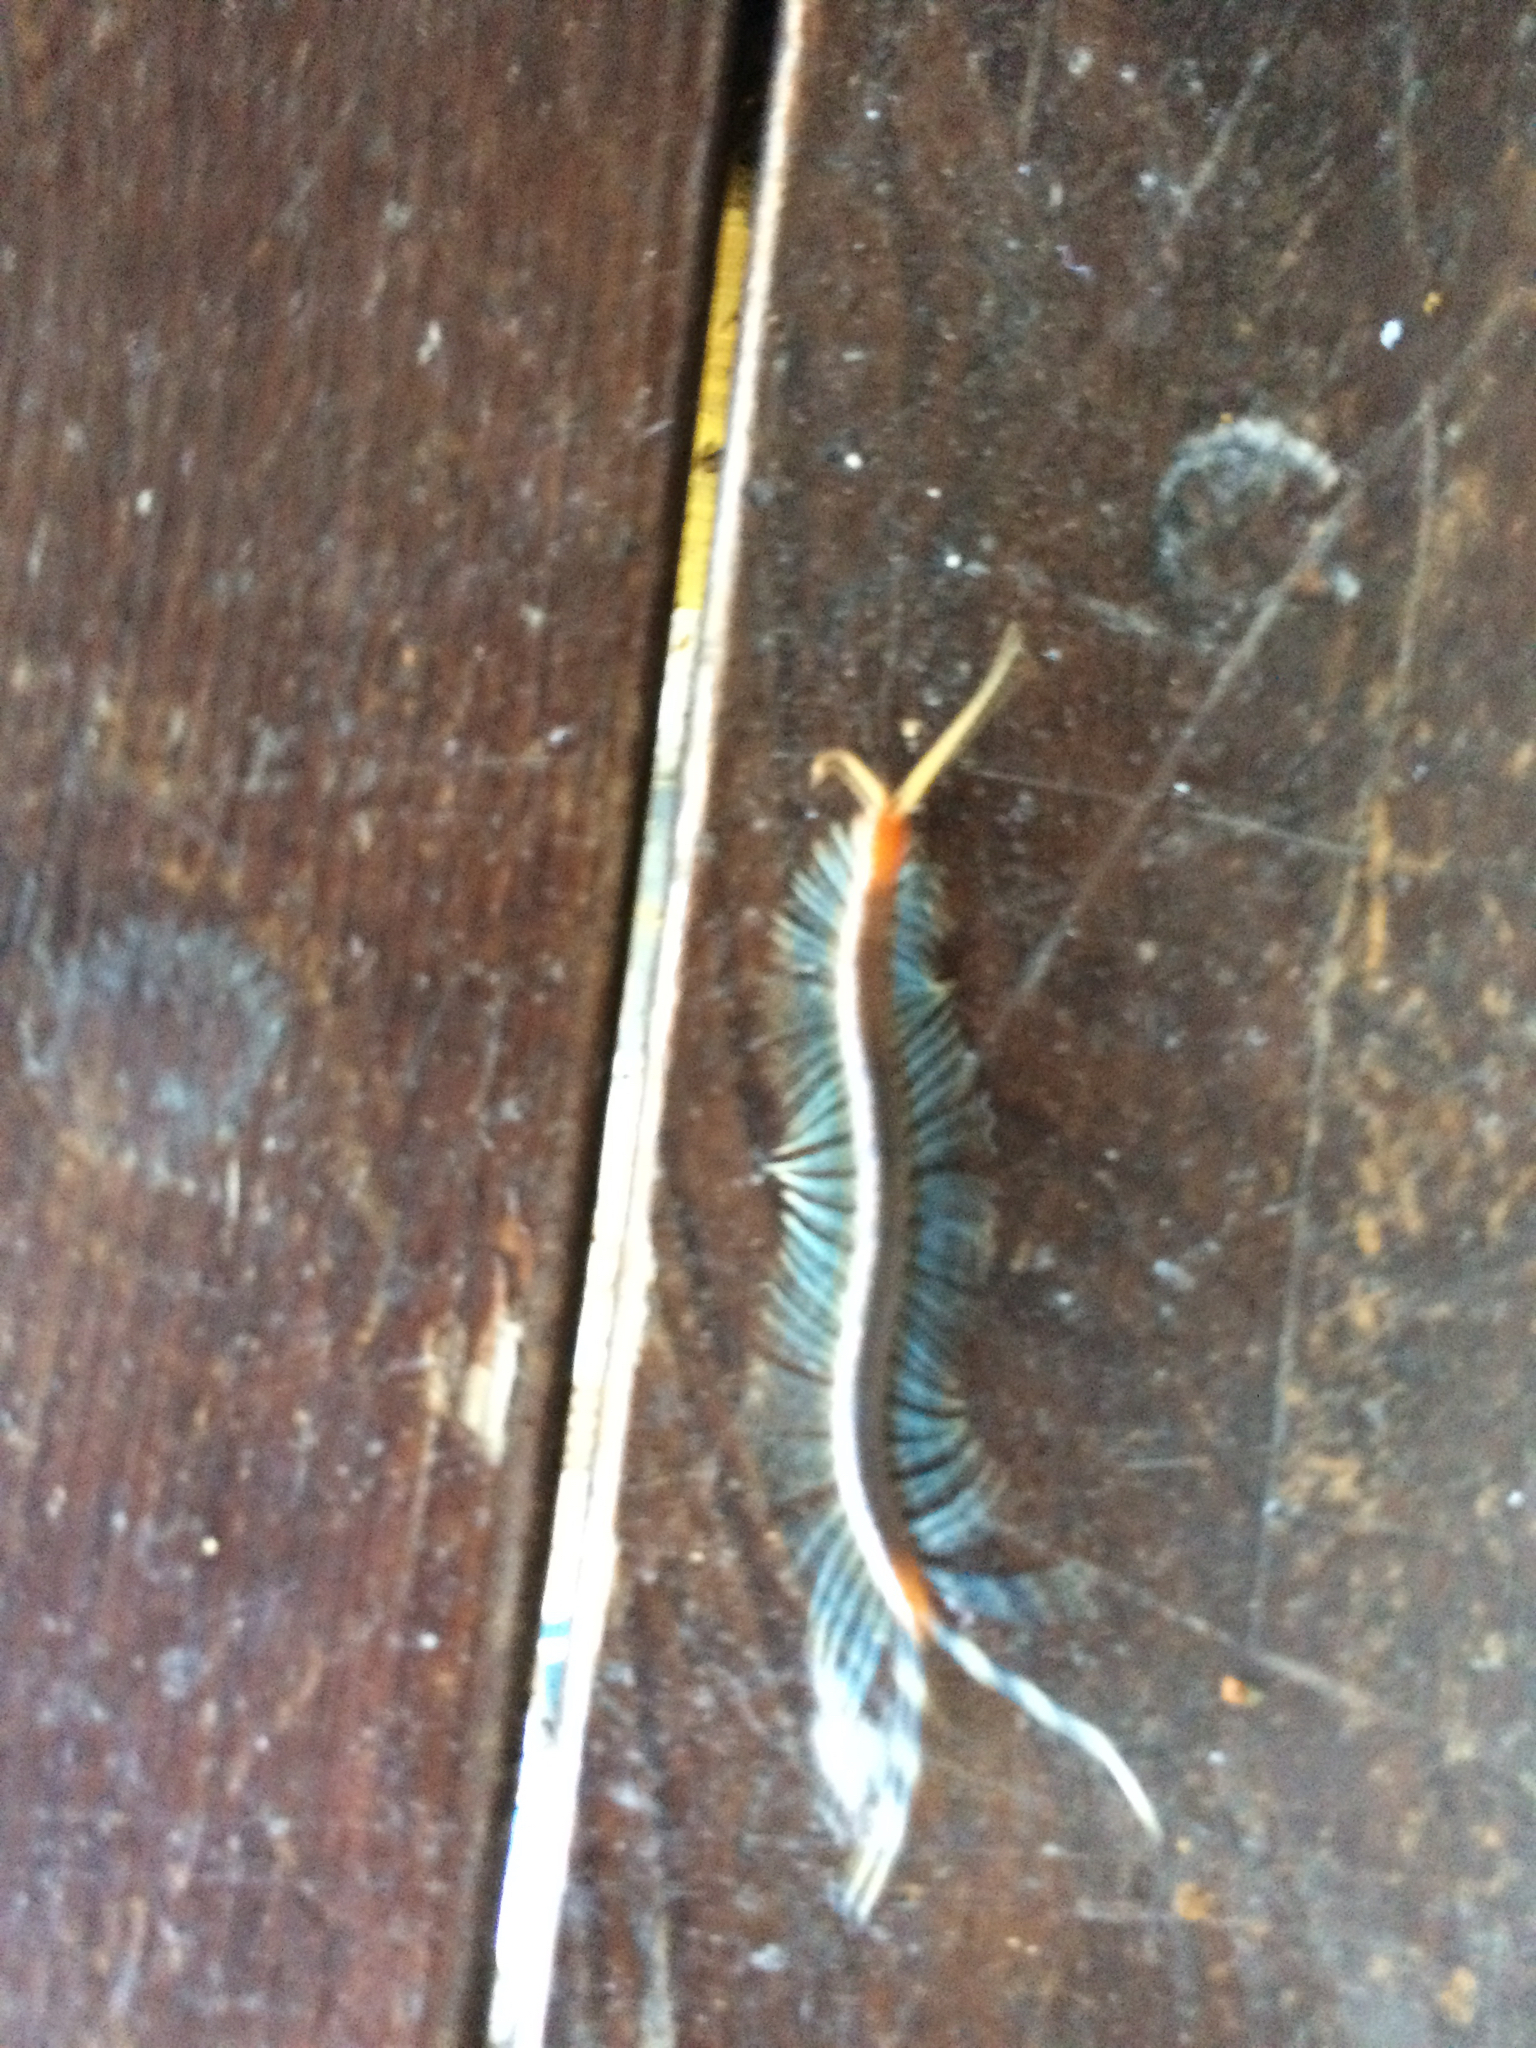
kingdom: Animalia
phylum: Arthropoda
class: Chilopoda
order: Scolopendromorpha
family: Scolopendridae
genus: Otostigmus
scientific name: Otostigmus scaber
